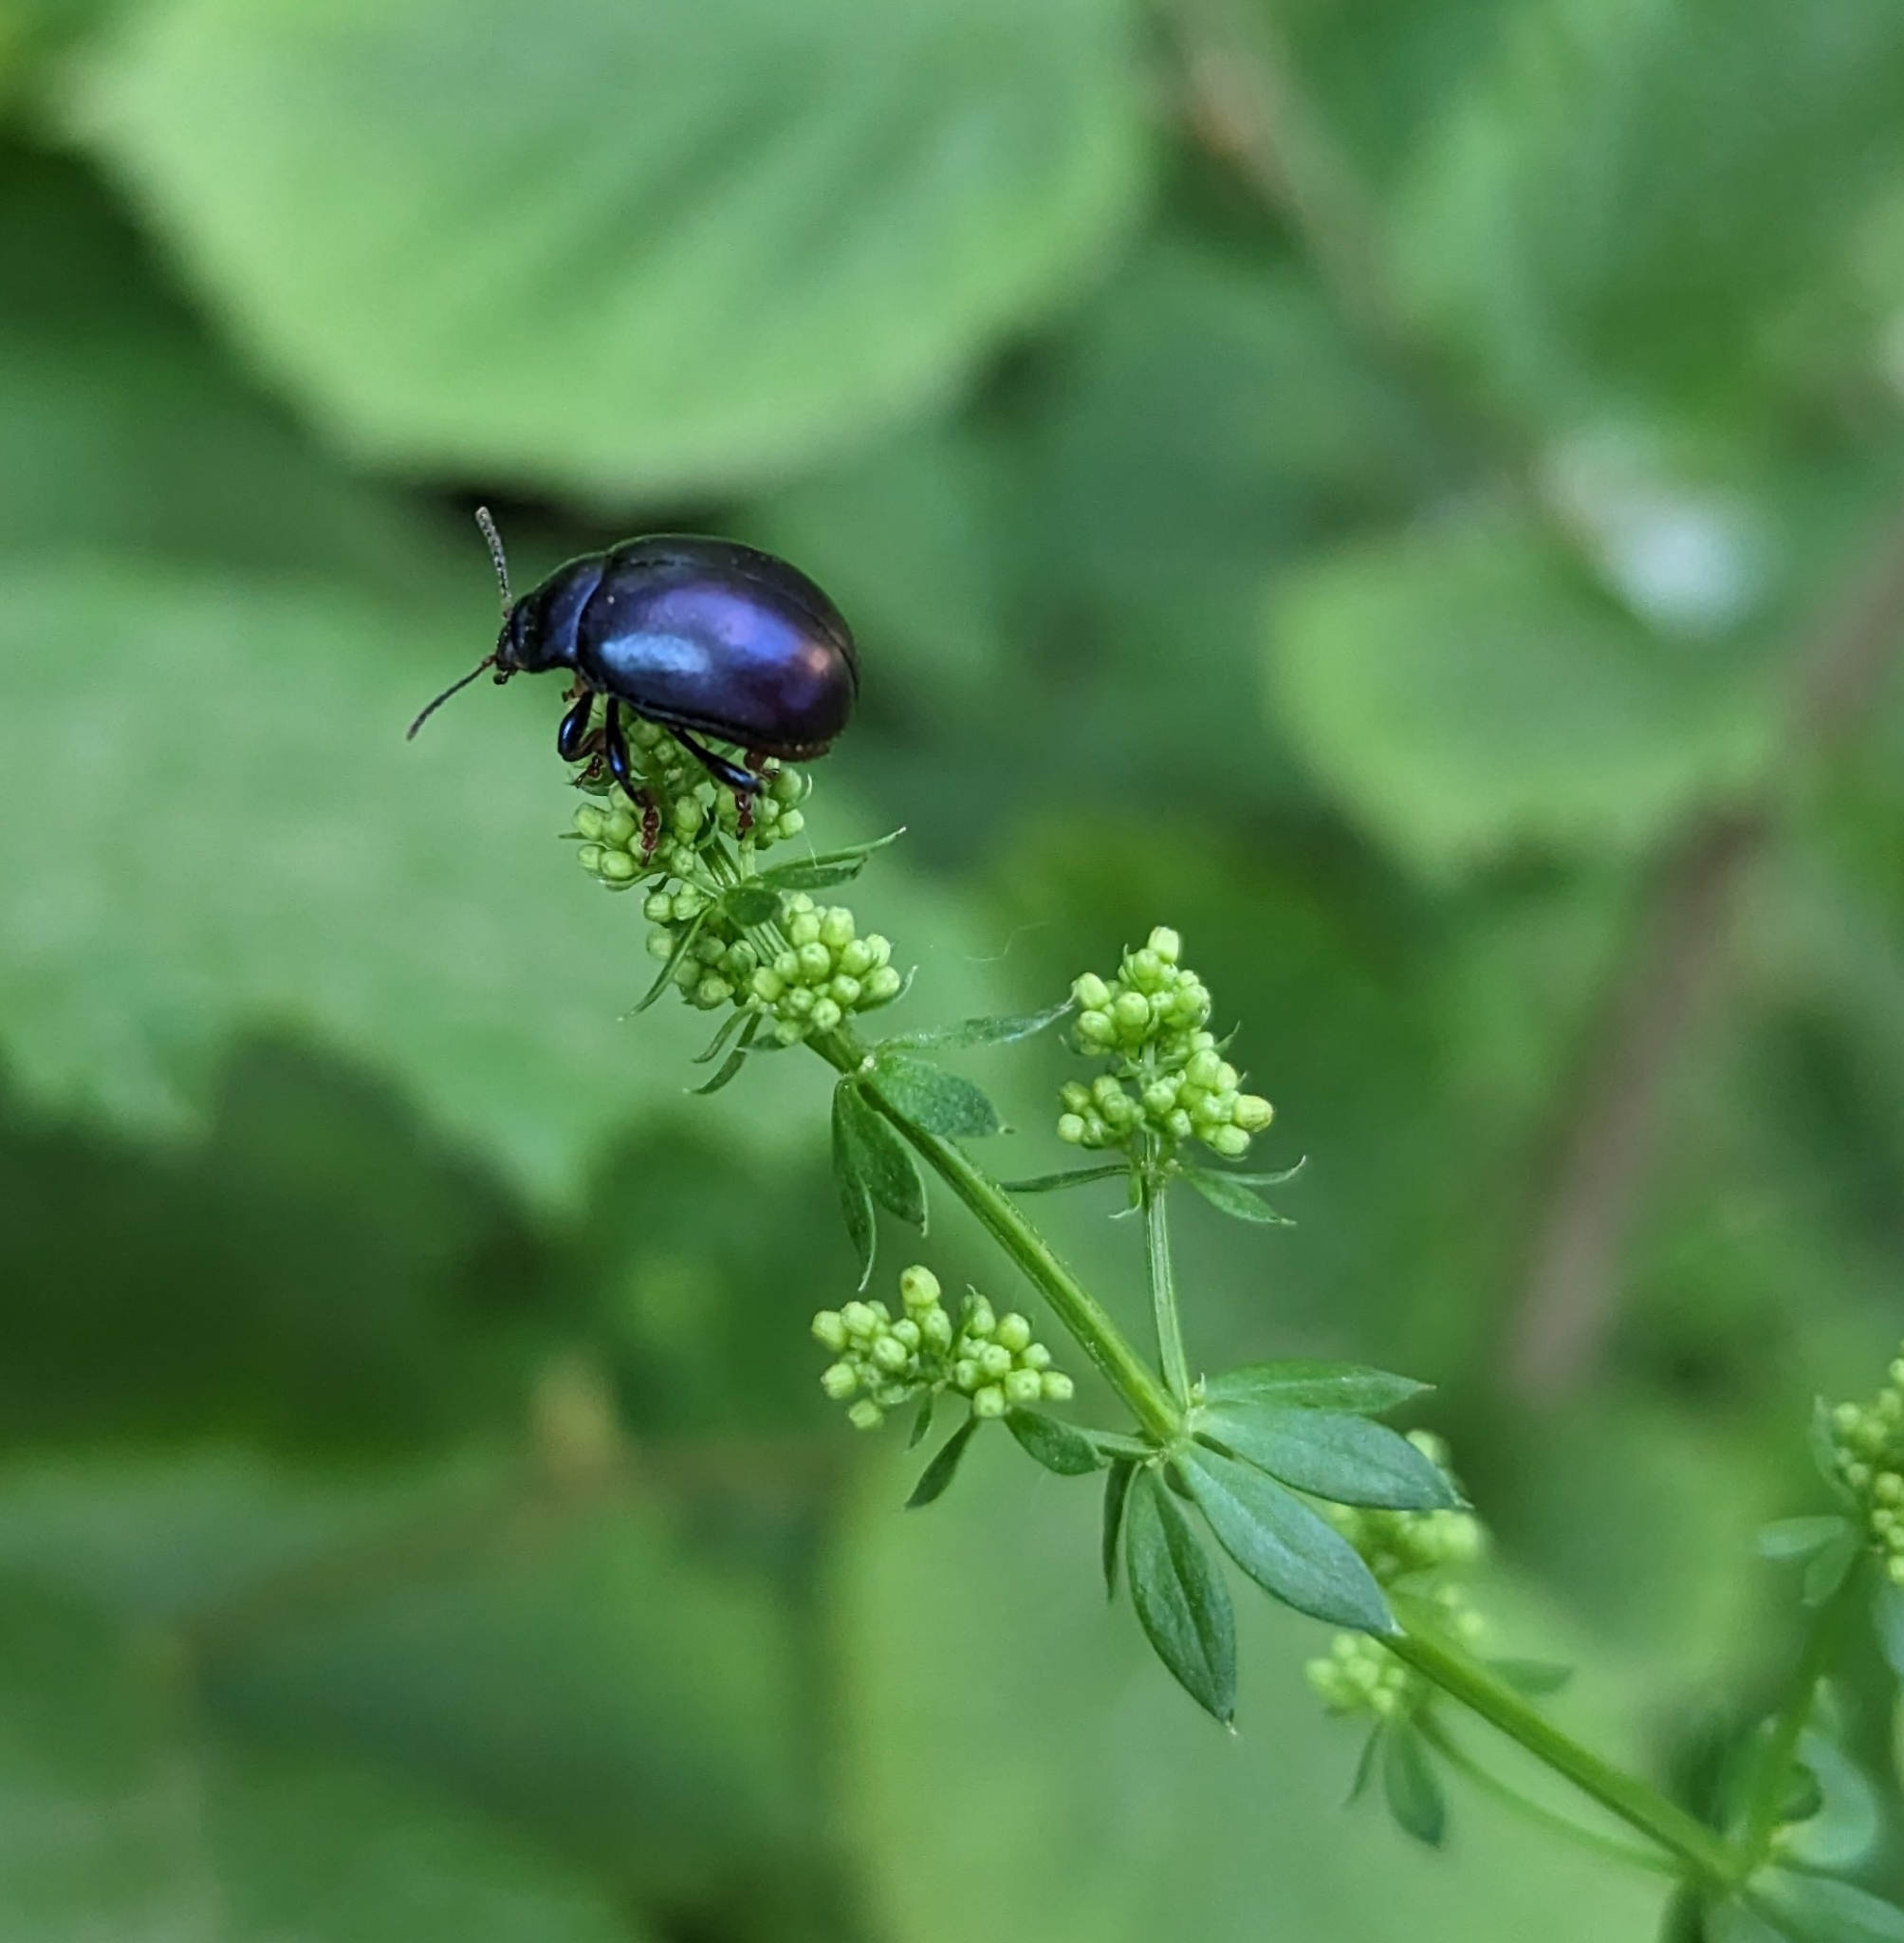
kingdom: Animalia
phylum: Arthropoda
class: Insecta
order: Coleoptera
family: Chrysomelidae
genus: Chrysolina
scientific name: Chrysolina sturmi
